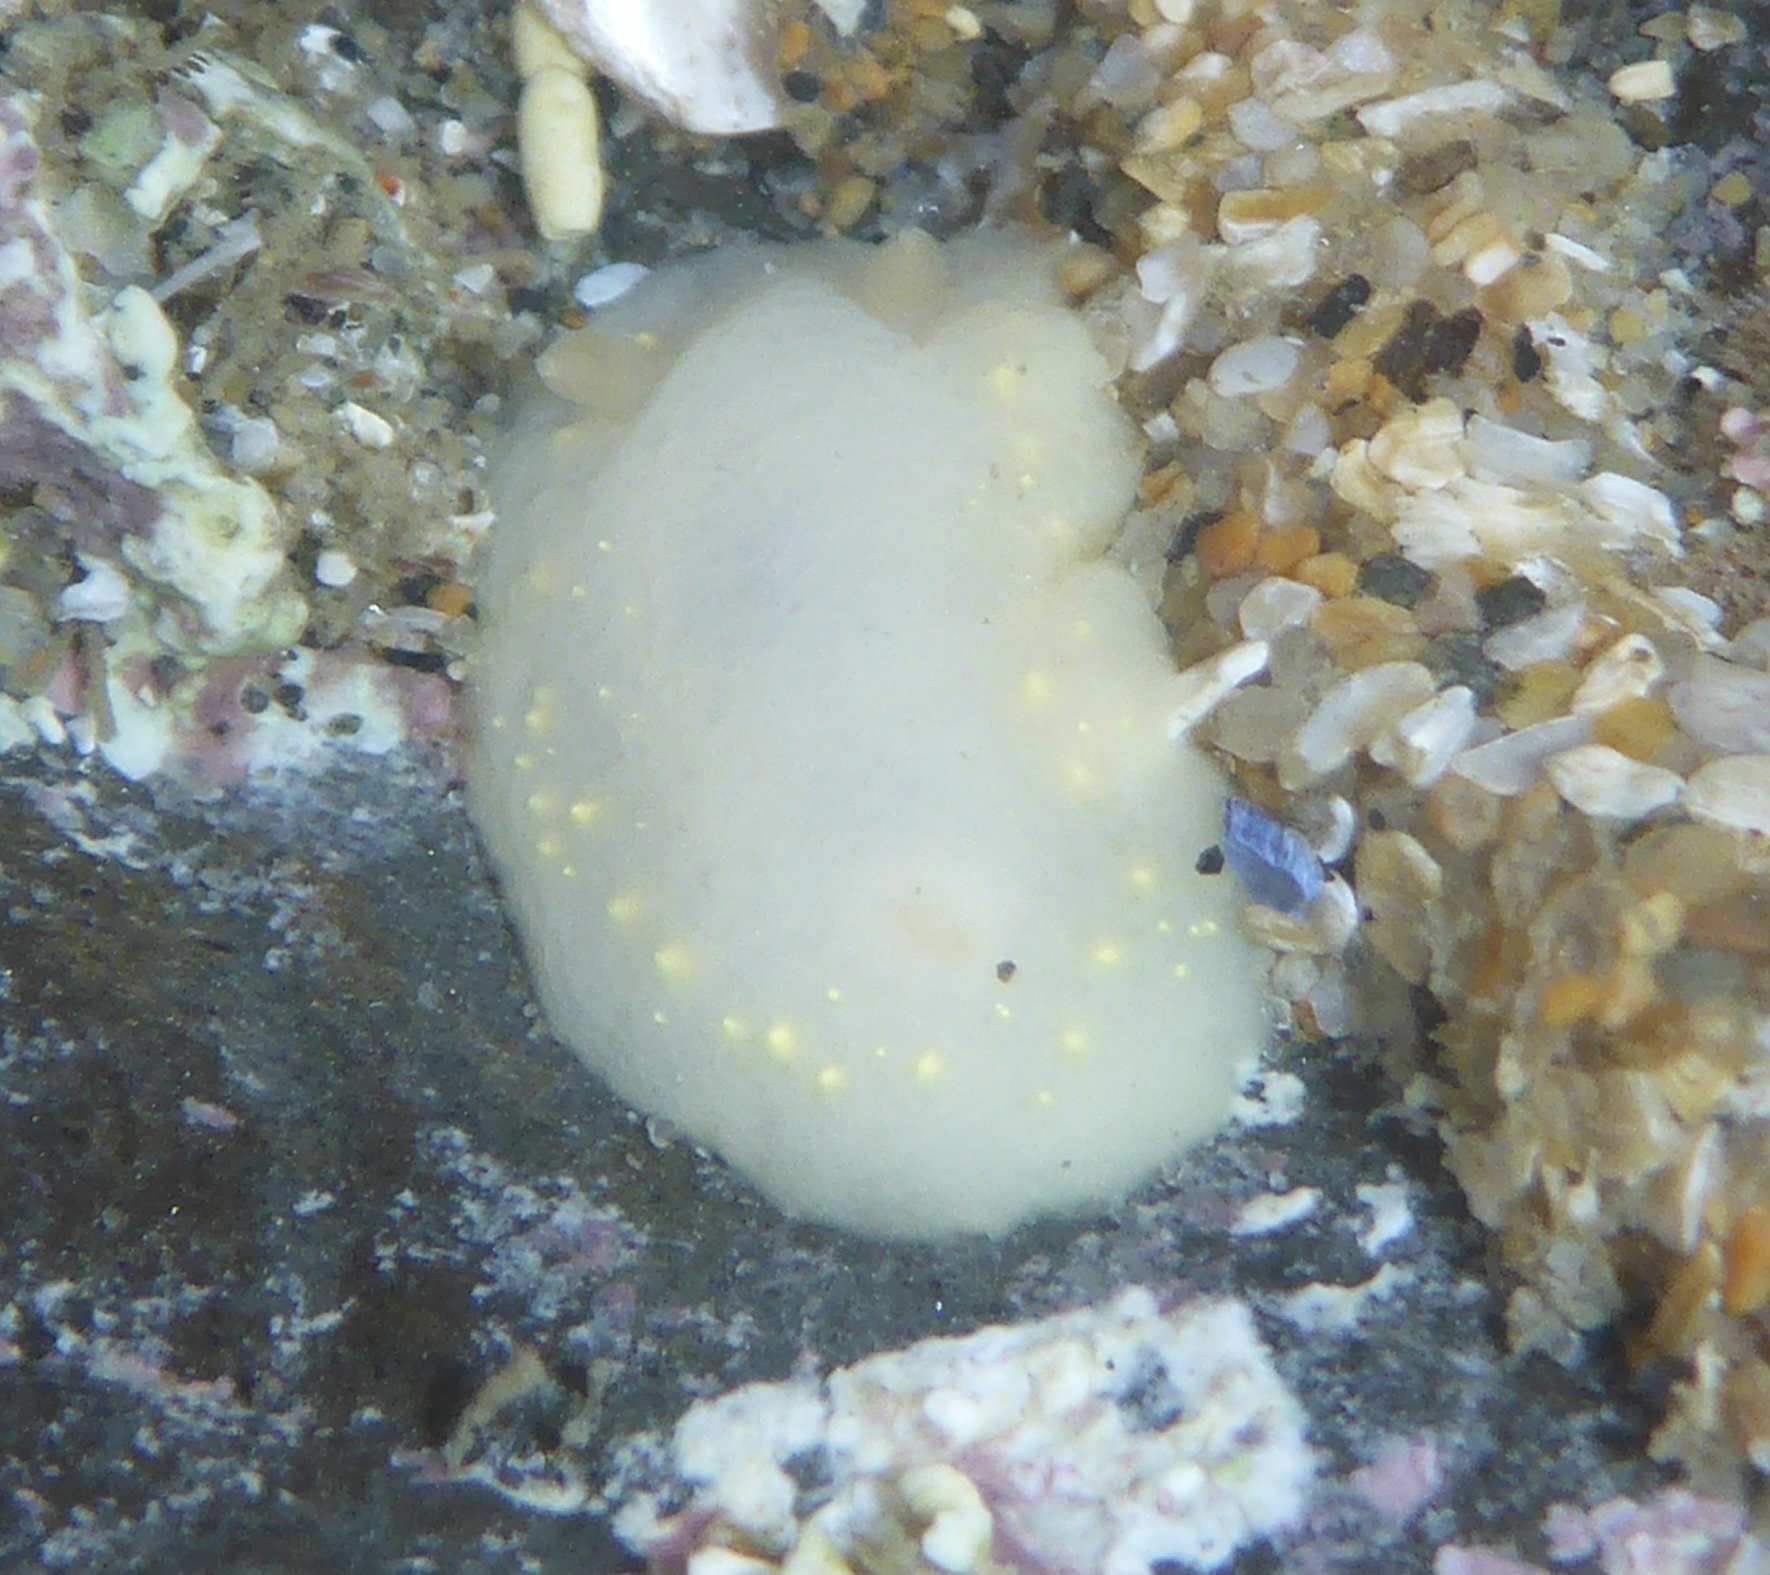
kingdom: Animalia
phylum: Mollusca
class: Gastropoda
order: Nudibranchia
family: Cadlinidae
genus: Cadlina
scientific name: Cadlina modesta
